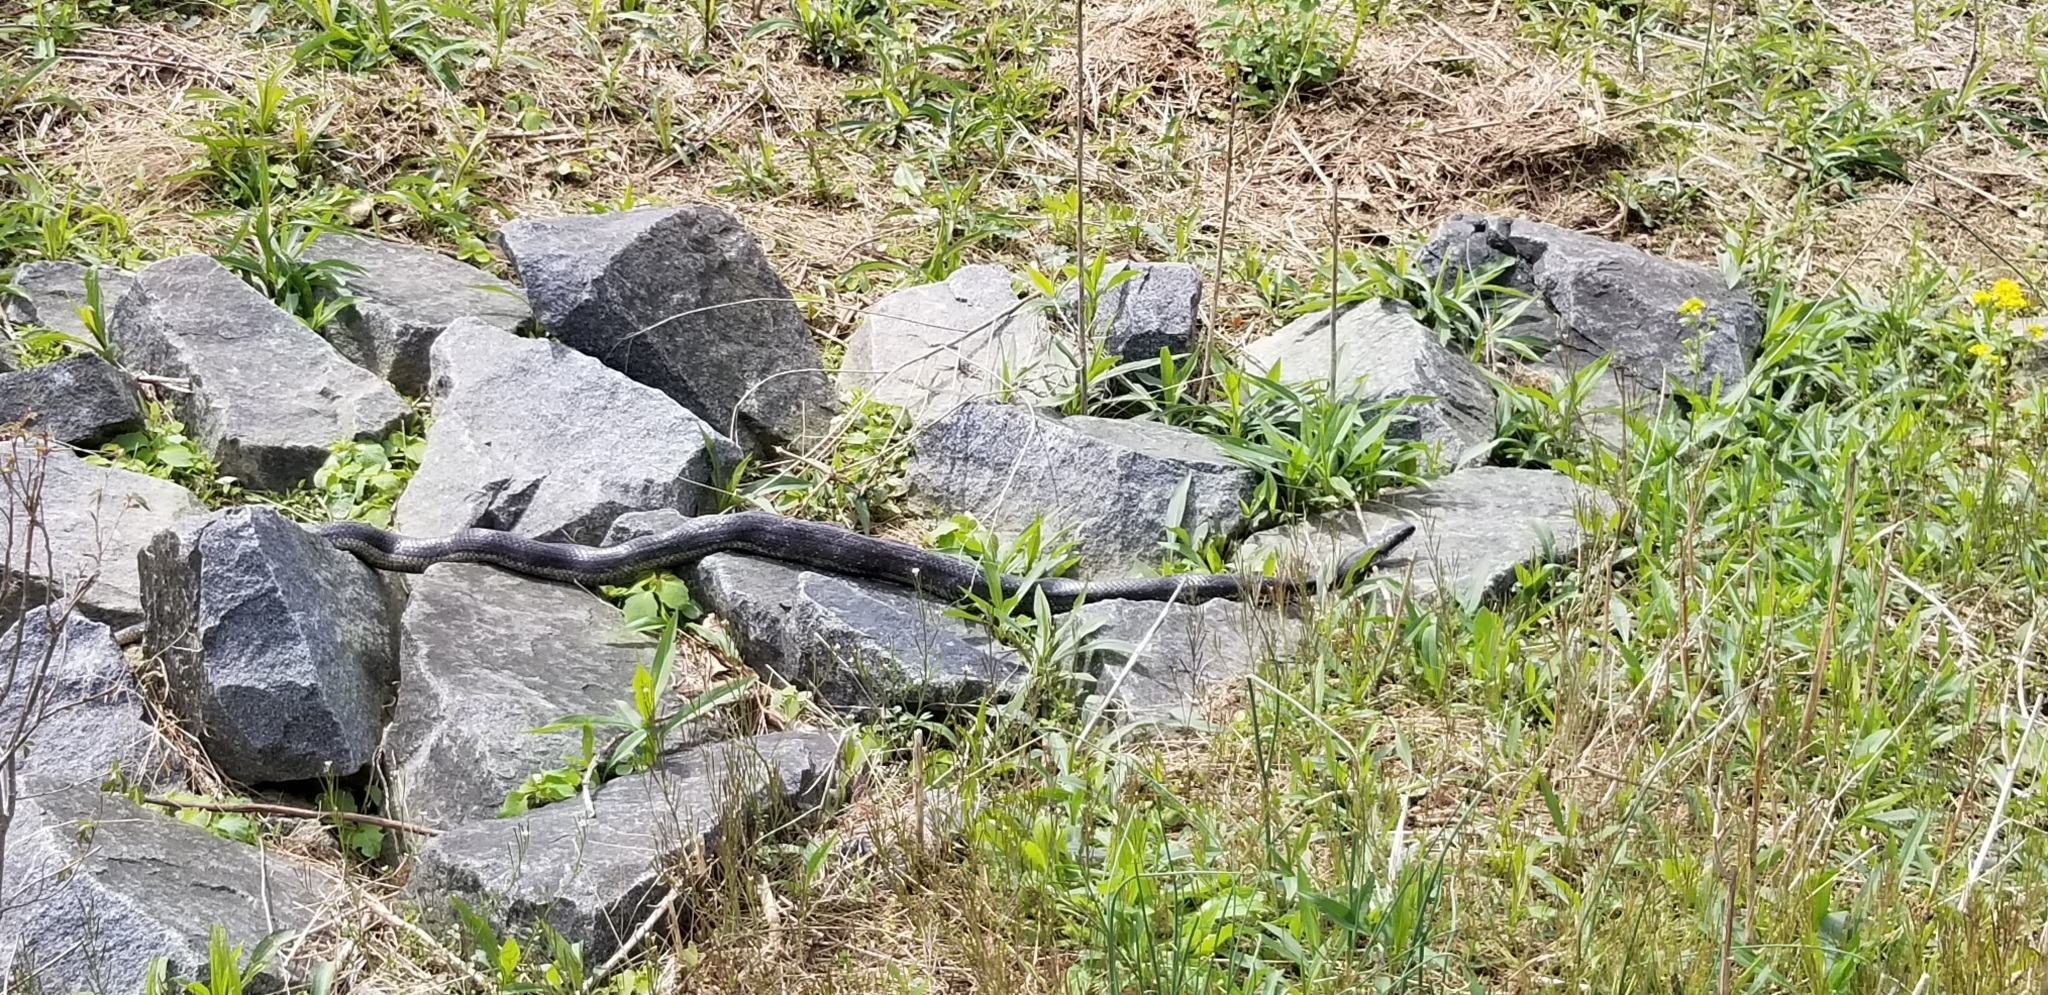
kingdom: Animalia
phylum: Chordata
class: Squamata
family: Colubridae
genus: Pantherophis
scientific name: Pantherophis alleghaniensis
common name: Eastern rat snake
